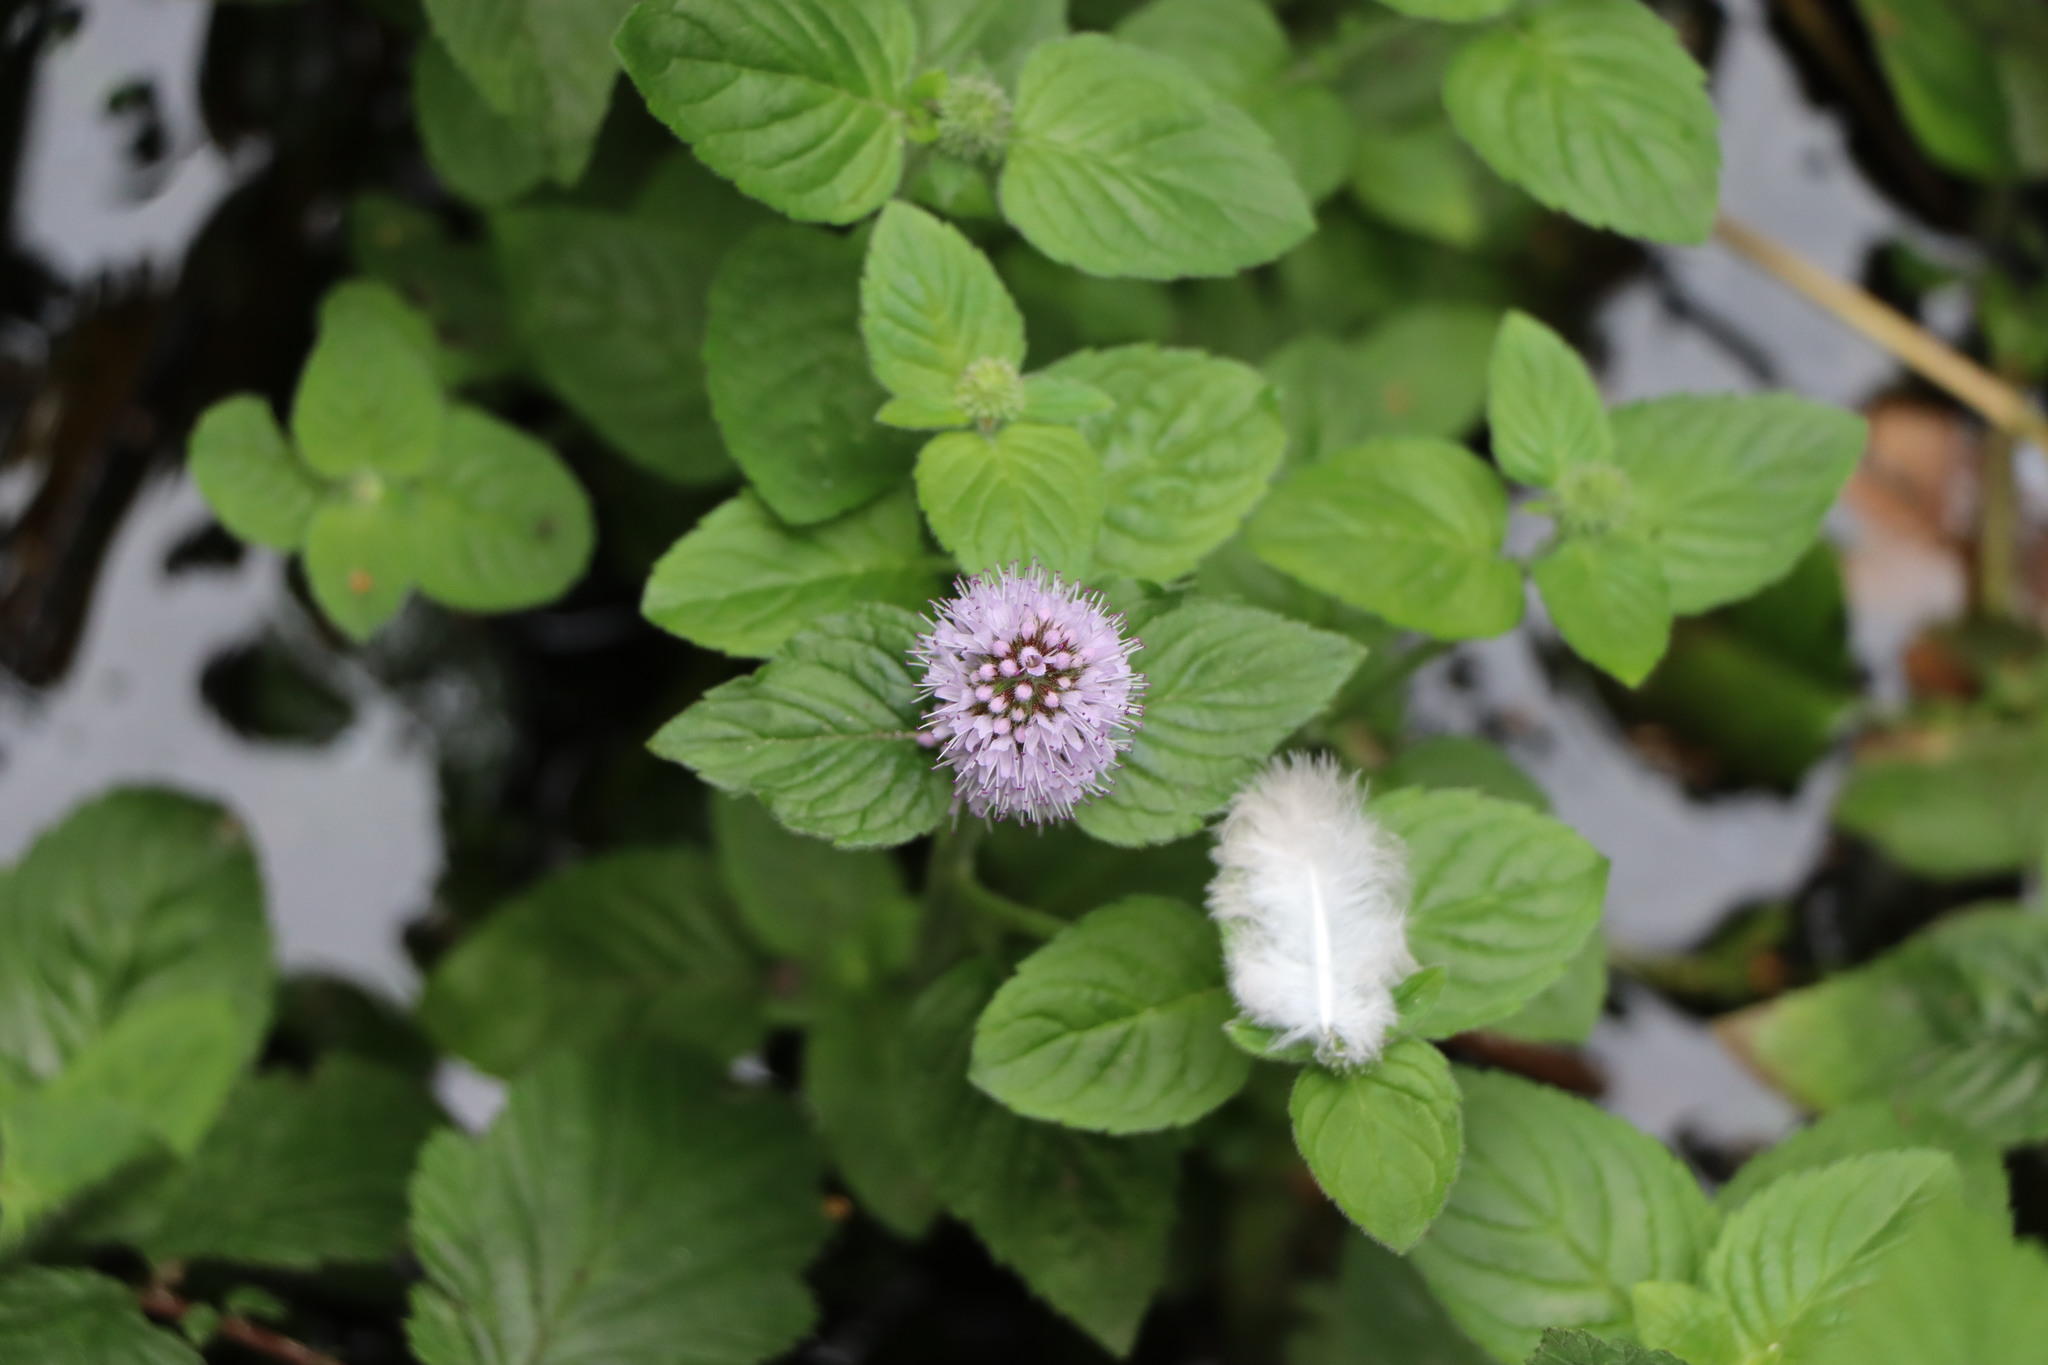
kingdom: Plantae
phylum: Tracheophyta
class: Magnoliopsida
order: Lamiales
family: Lamiaceae
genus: Mentha
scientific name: Mentha aquatica
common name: Water mint
